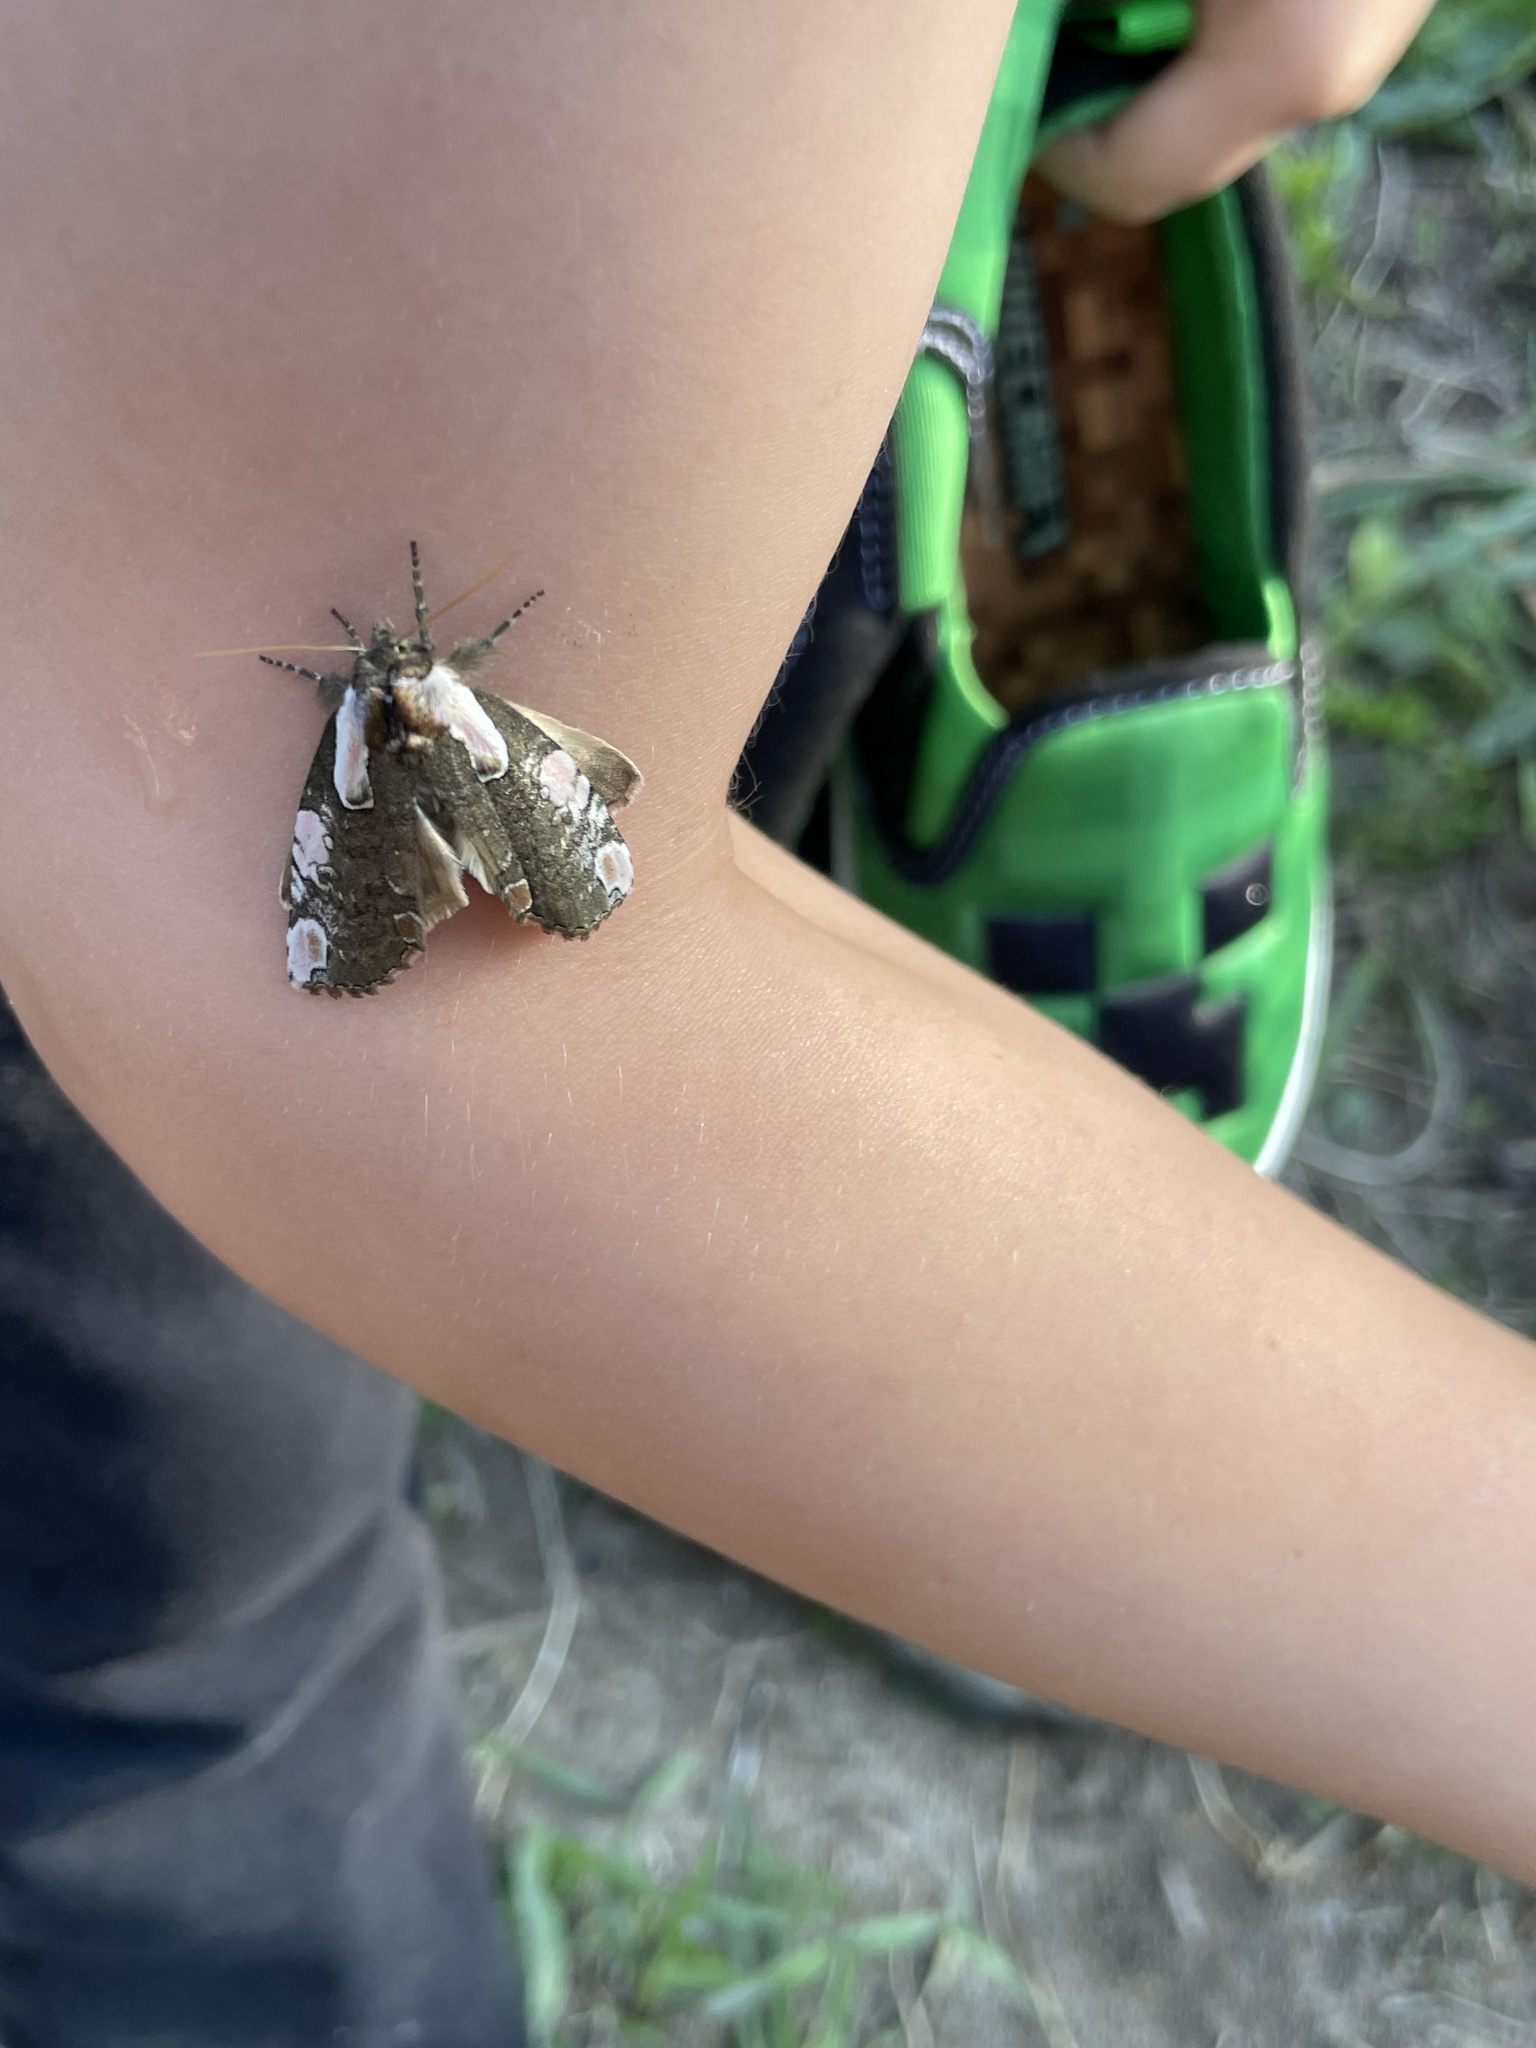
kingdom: Animalia
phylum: Arthropoda
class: Insecta
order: Lepidoptera
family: Drepanidae
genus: Euthyatira
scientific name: Euthyatira pudens
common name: Dogwood thyatirid moth
